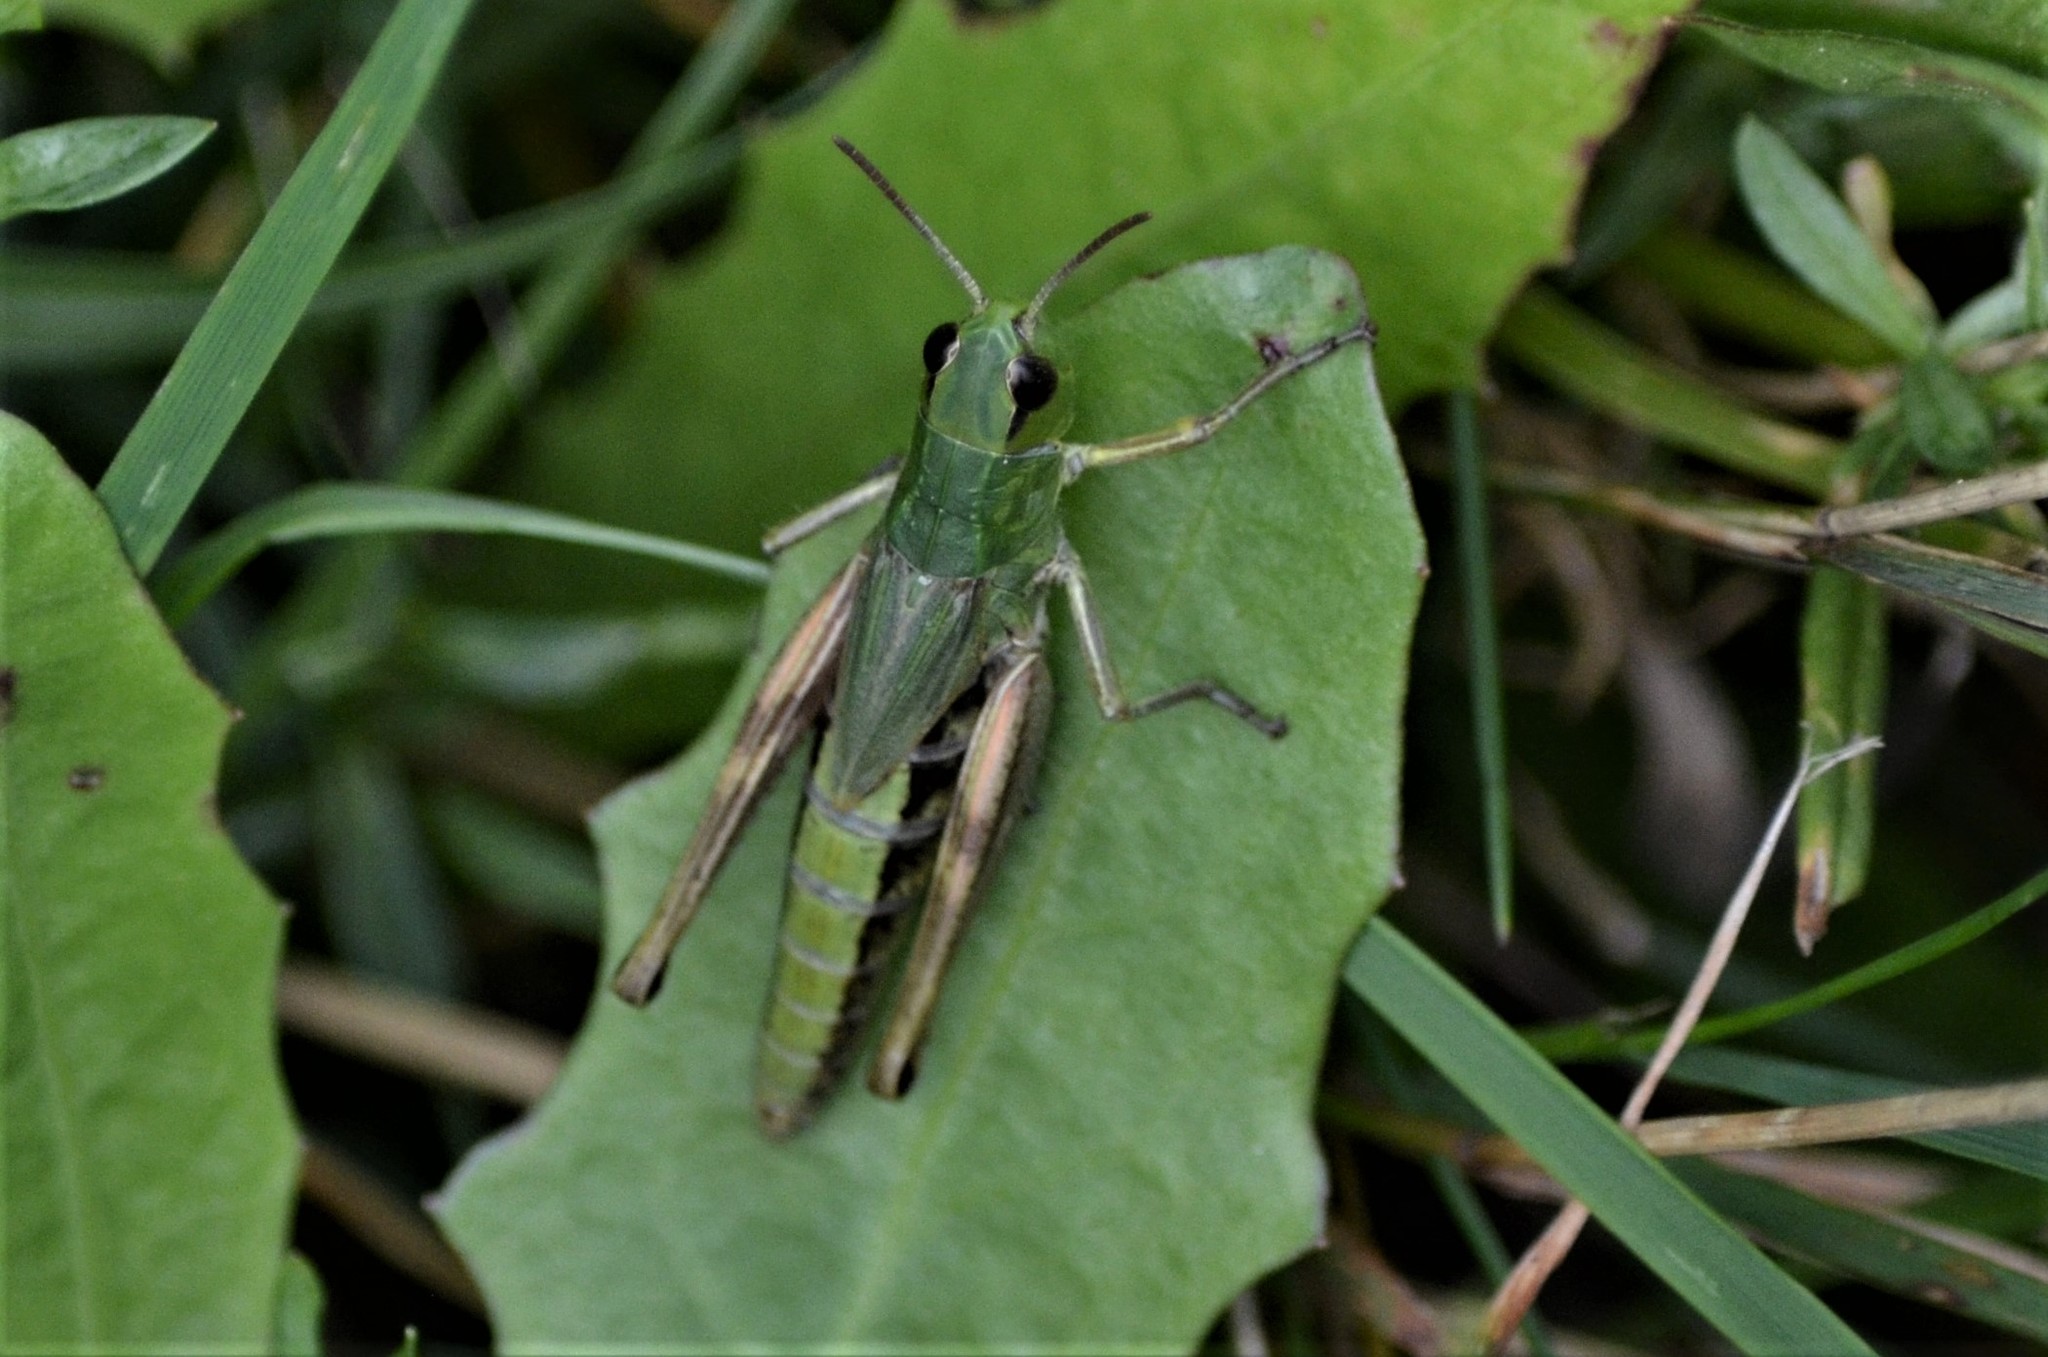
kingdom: Animalia
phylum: Arthropoda
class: Insecta
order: Orthoptera
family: Acrididae
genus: Pseudochorthippus
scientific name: Pseudochorthippus parallelus
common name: Meadow grasshopper
